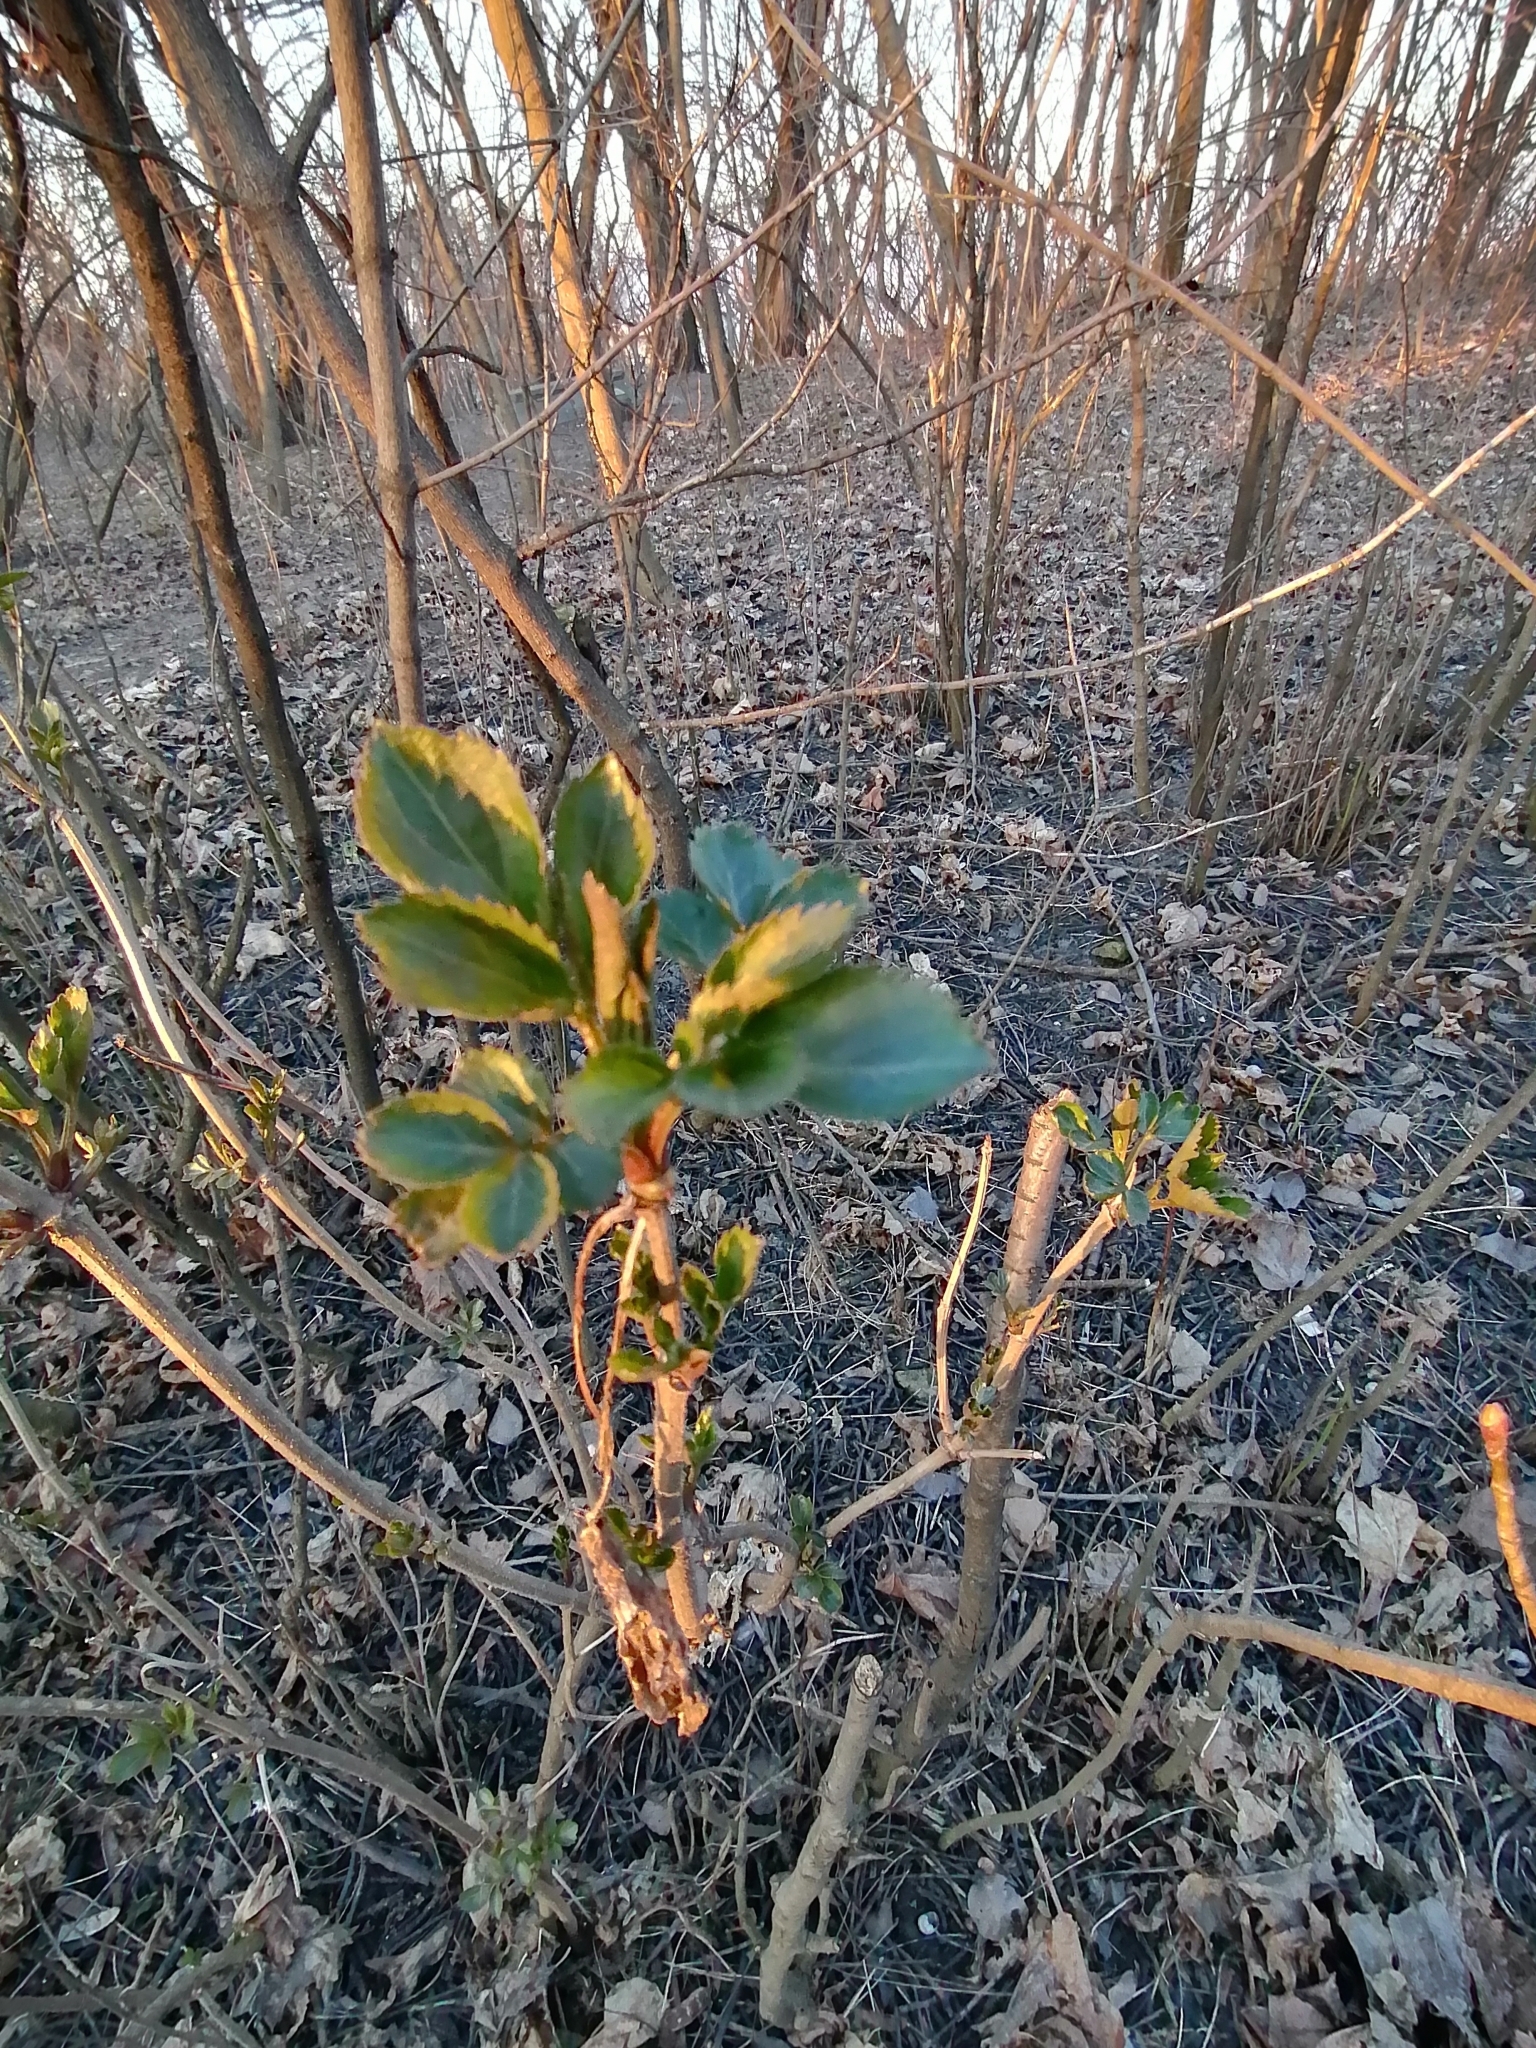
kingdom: Plantae
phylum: Tracheophyta
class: Magnoliopsida
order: Dipsacales
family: Viburnaceae
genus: Sambucus
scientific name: Sambucus nigra
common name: Elder
